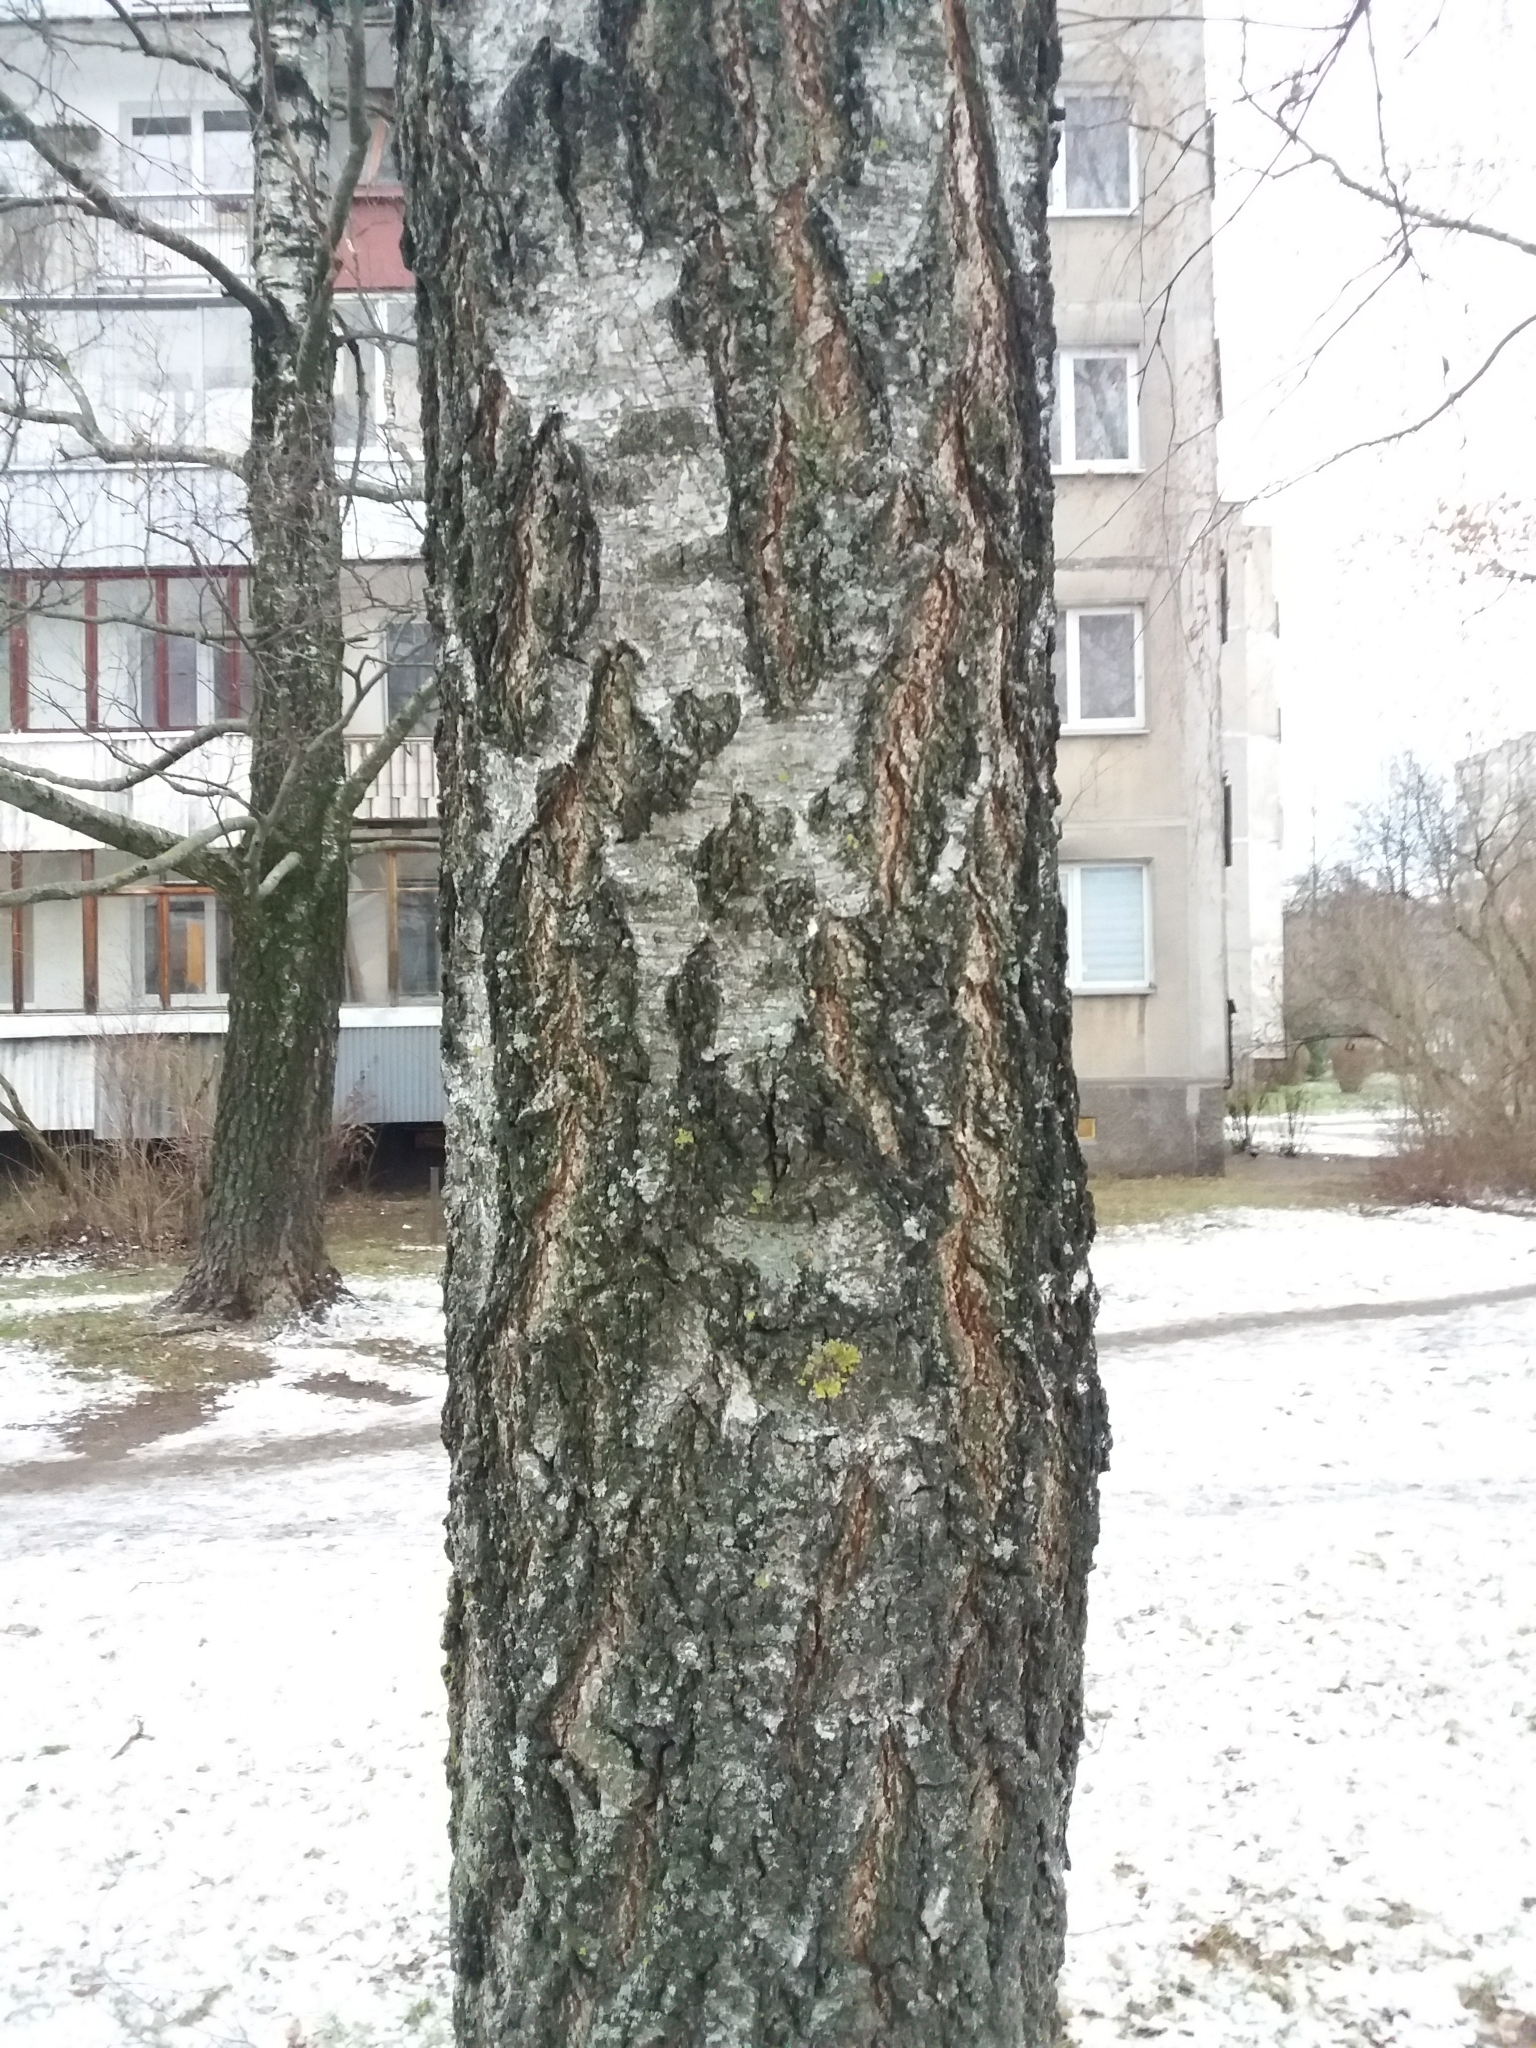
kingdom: Plantae
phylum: Tracheophyta
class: Magnoliopsida
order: Fagales
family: Betulaceae
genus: Betula
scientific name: Betula
